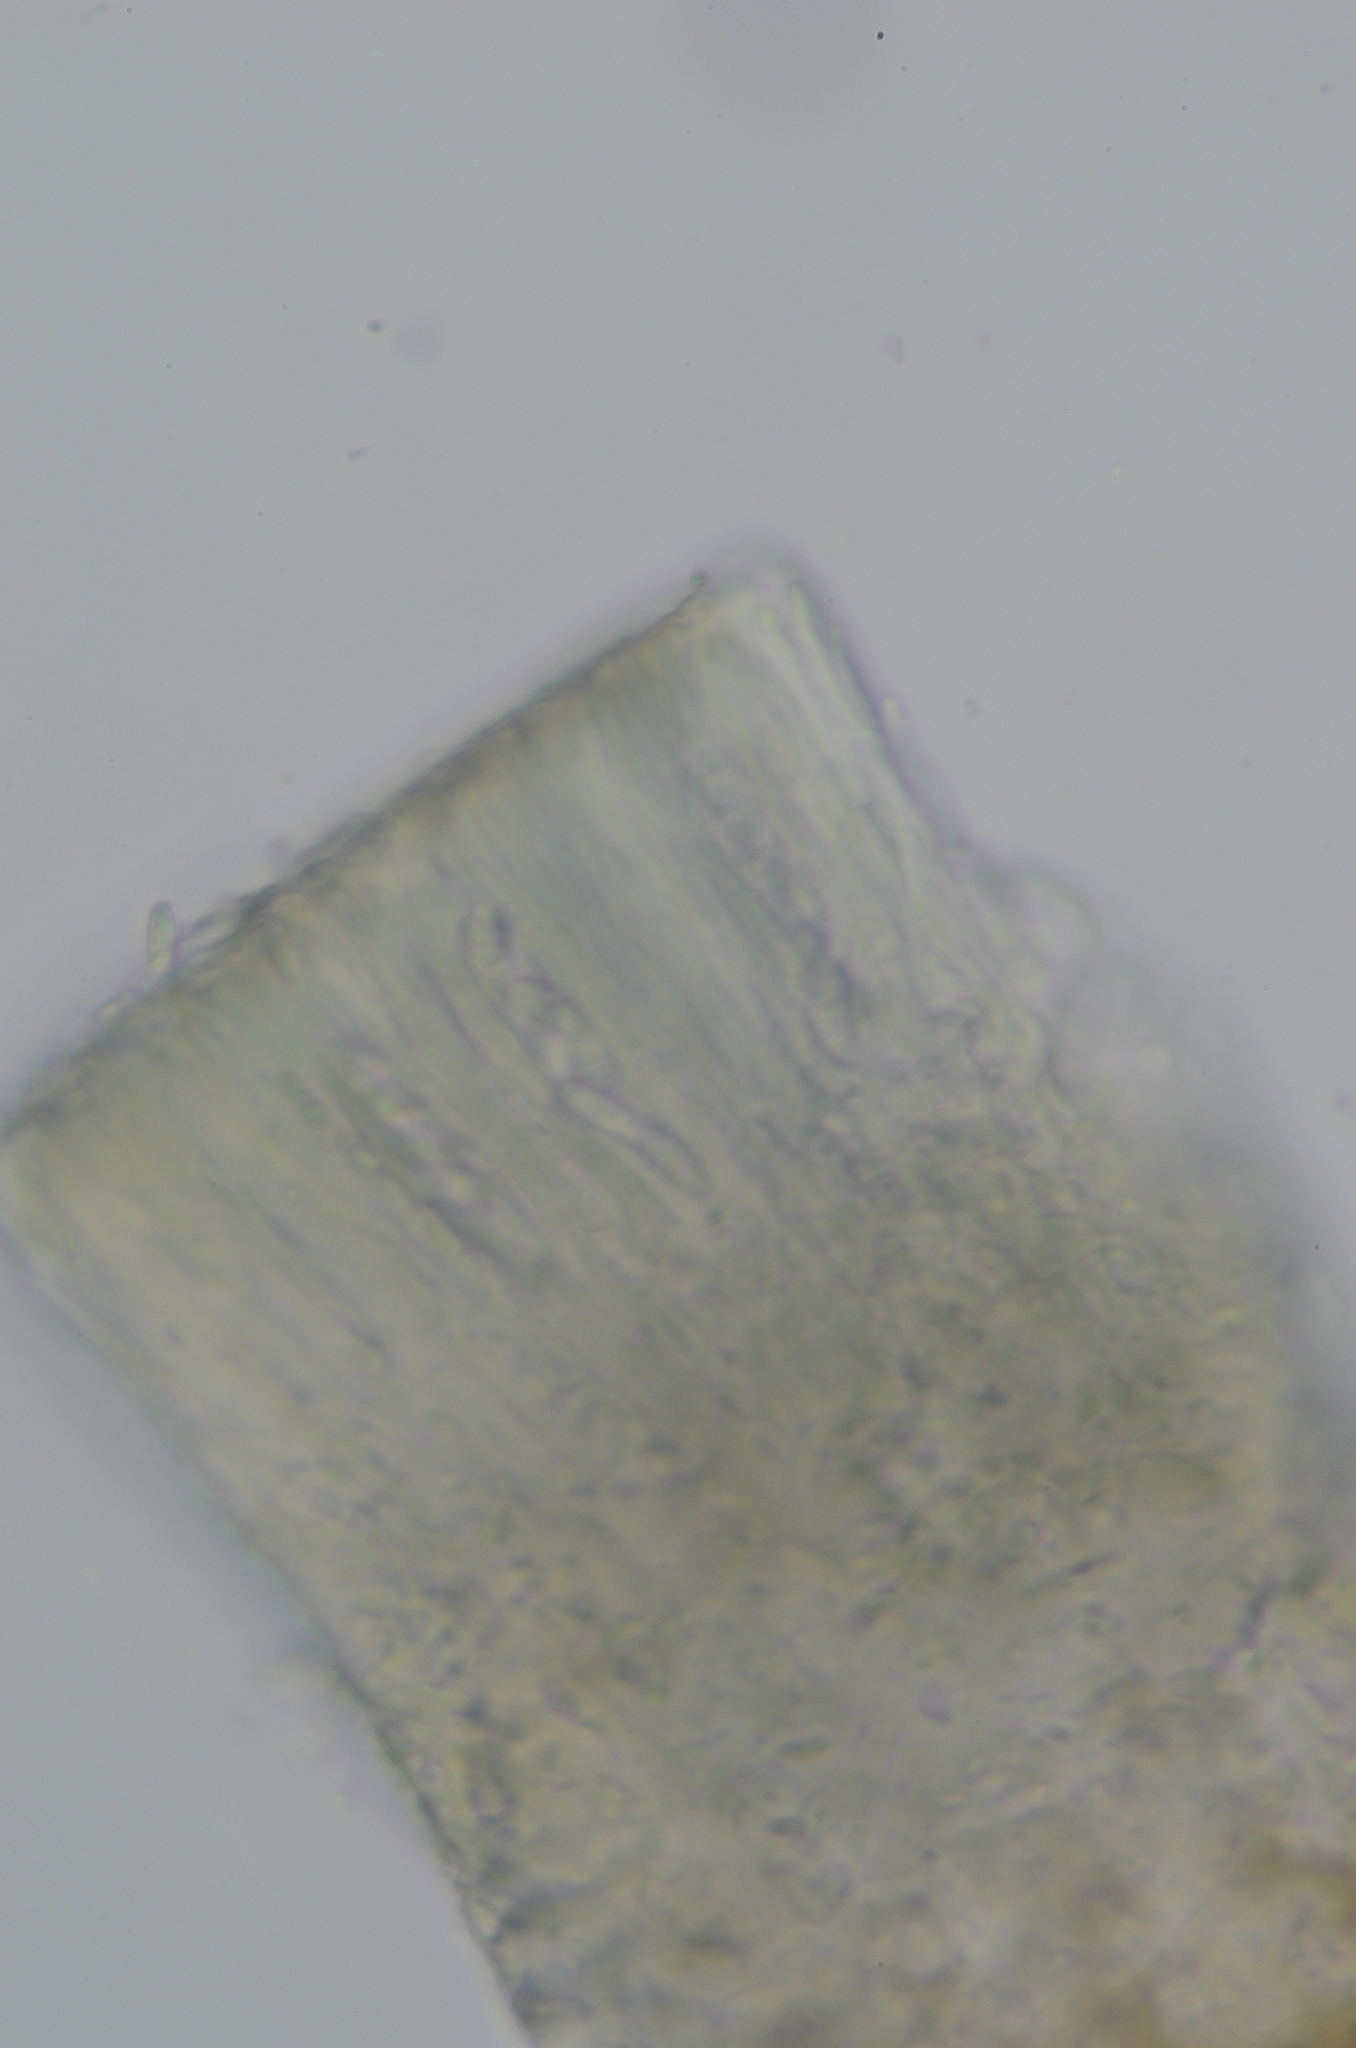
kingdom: Fungi
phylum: Ascomycota
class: Lecanoromycetes
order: Lecanorales
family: Psoraceae
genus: Protomicarea
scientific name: Protomicarea limosa
